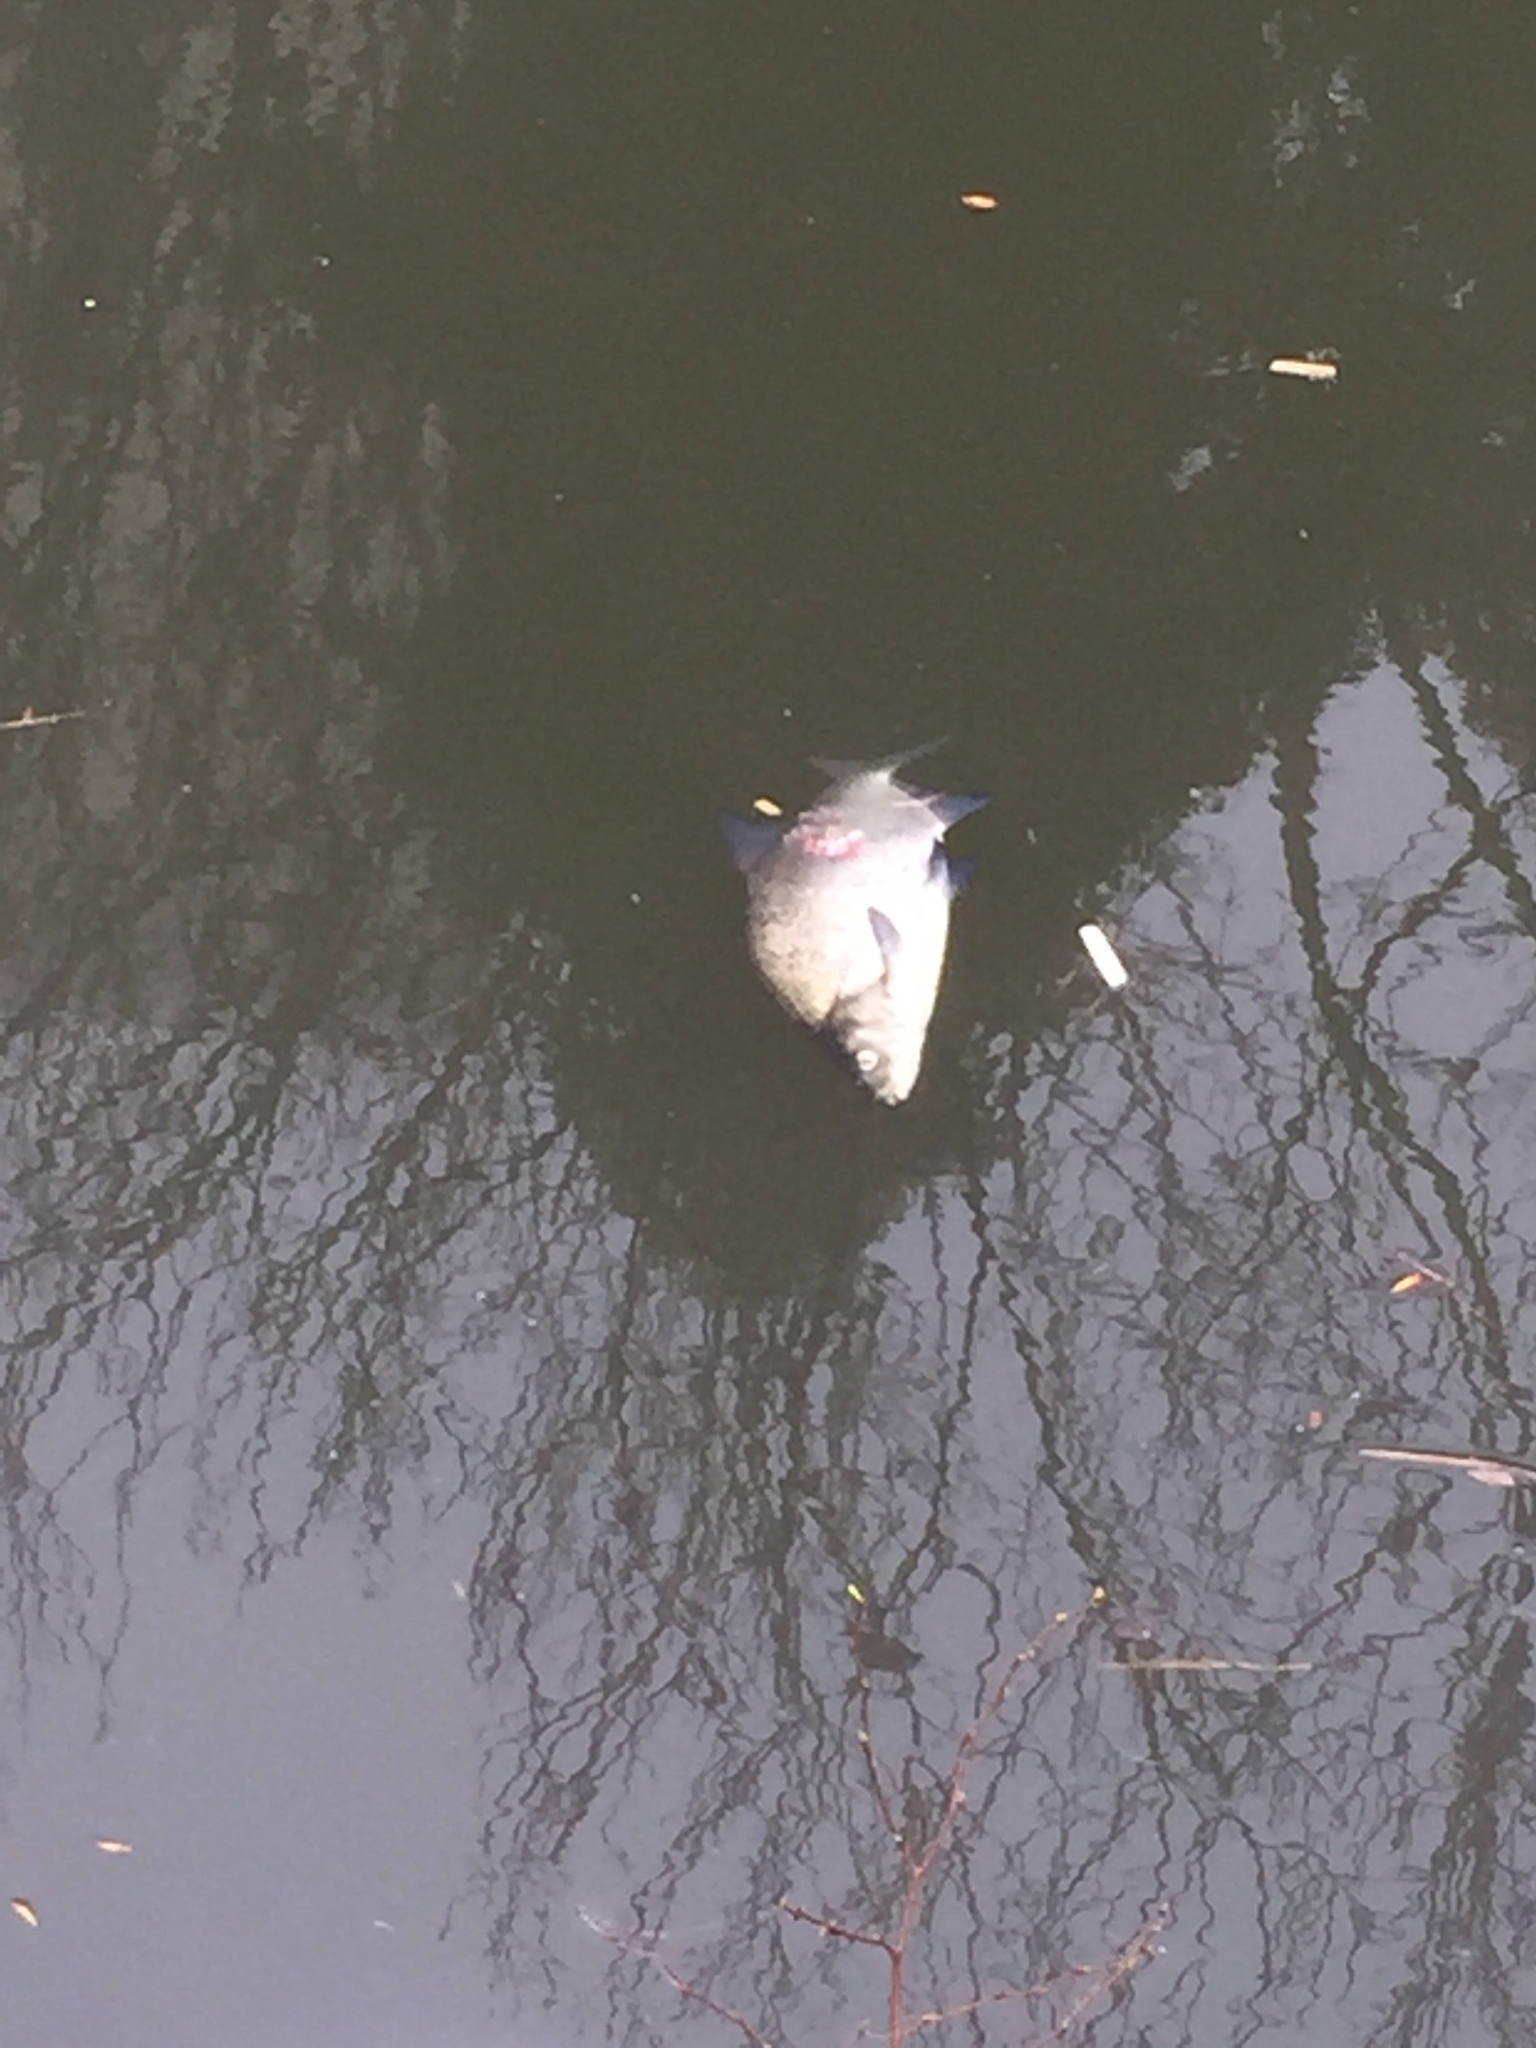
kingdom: Animalia
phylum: Chordata
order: Cypriniformes
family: Cyprinidae
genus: Abramis
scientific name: Abramis brama
